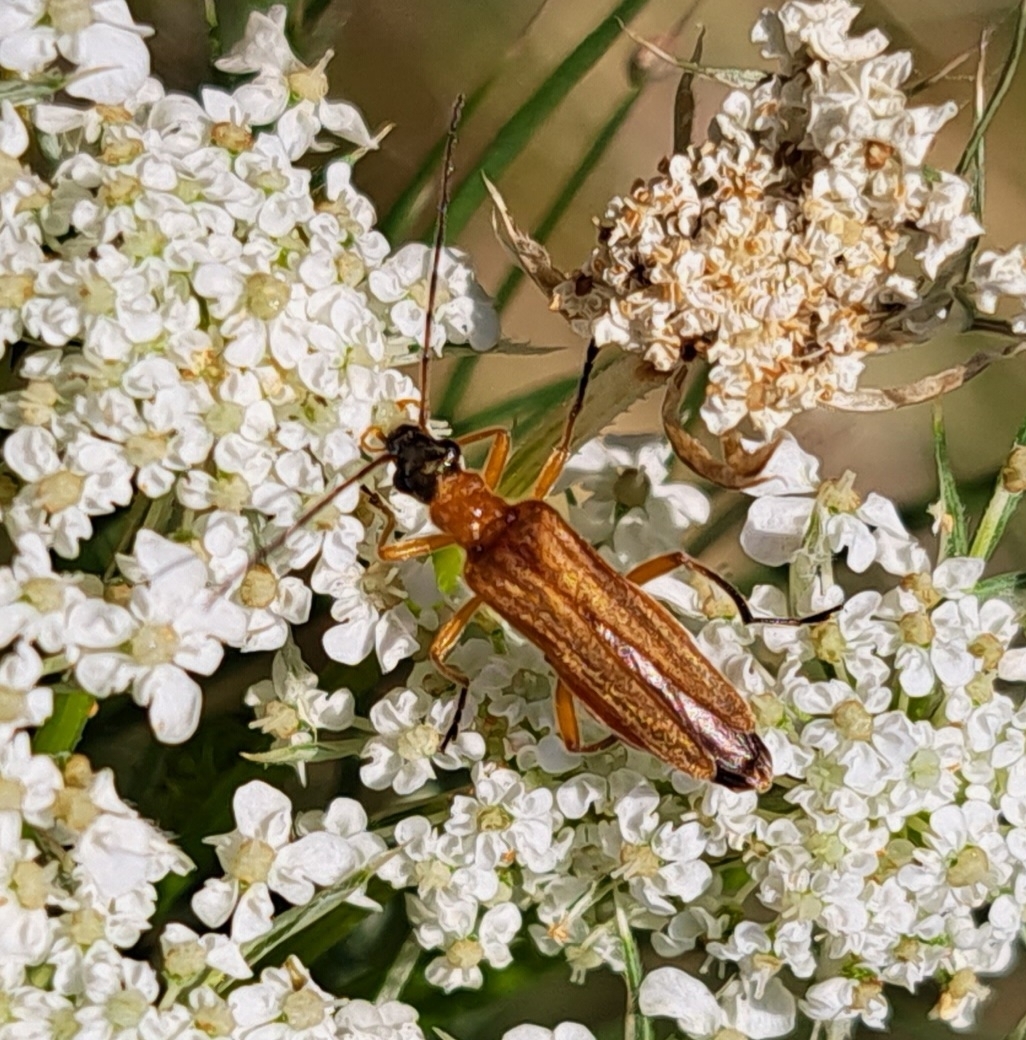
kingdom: Animalia
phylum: Arthropoda
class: Insecta
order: Coleoptera
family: Oedemeridae
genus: Oedemera
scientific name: Oedemera podagrariae
